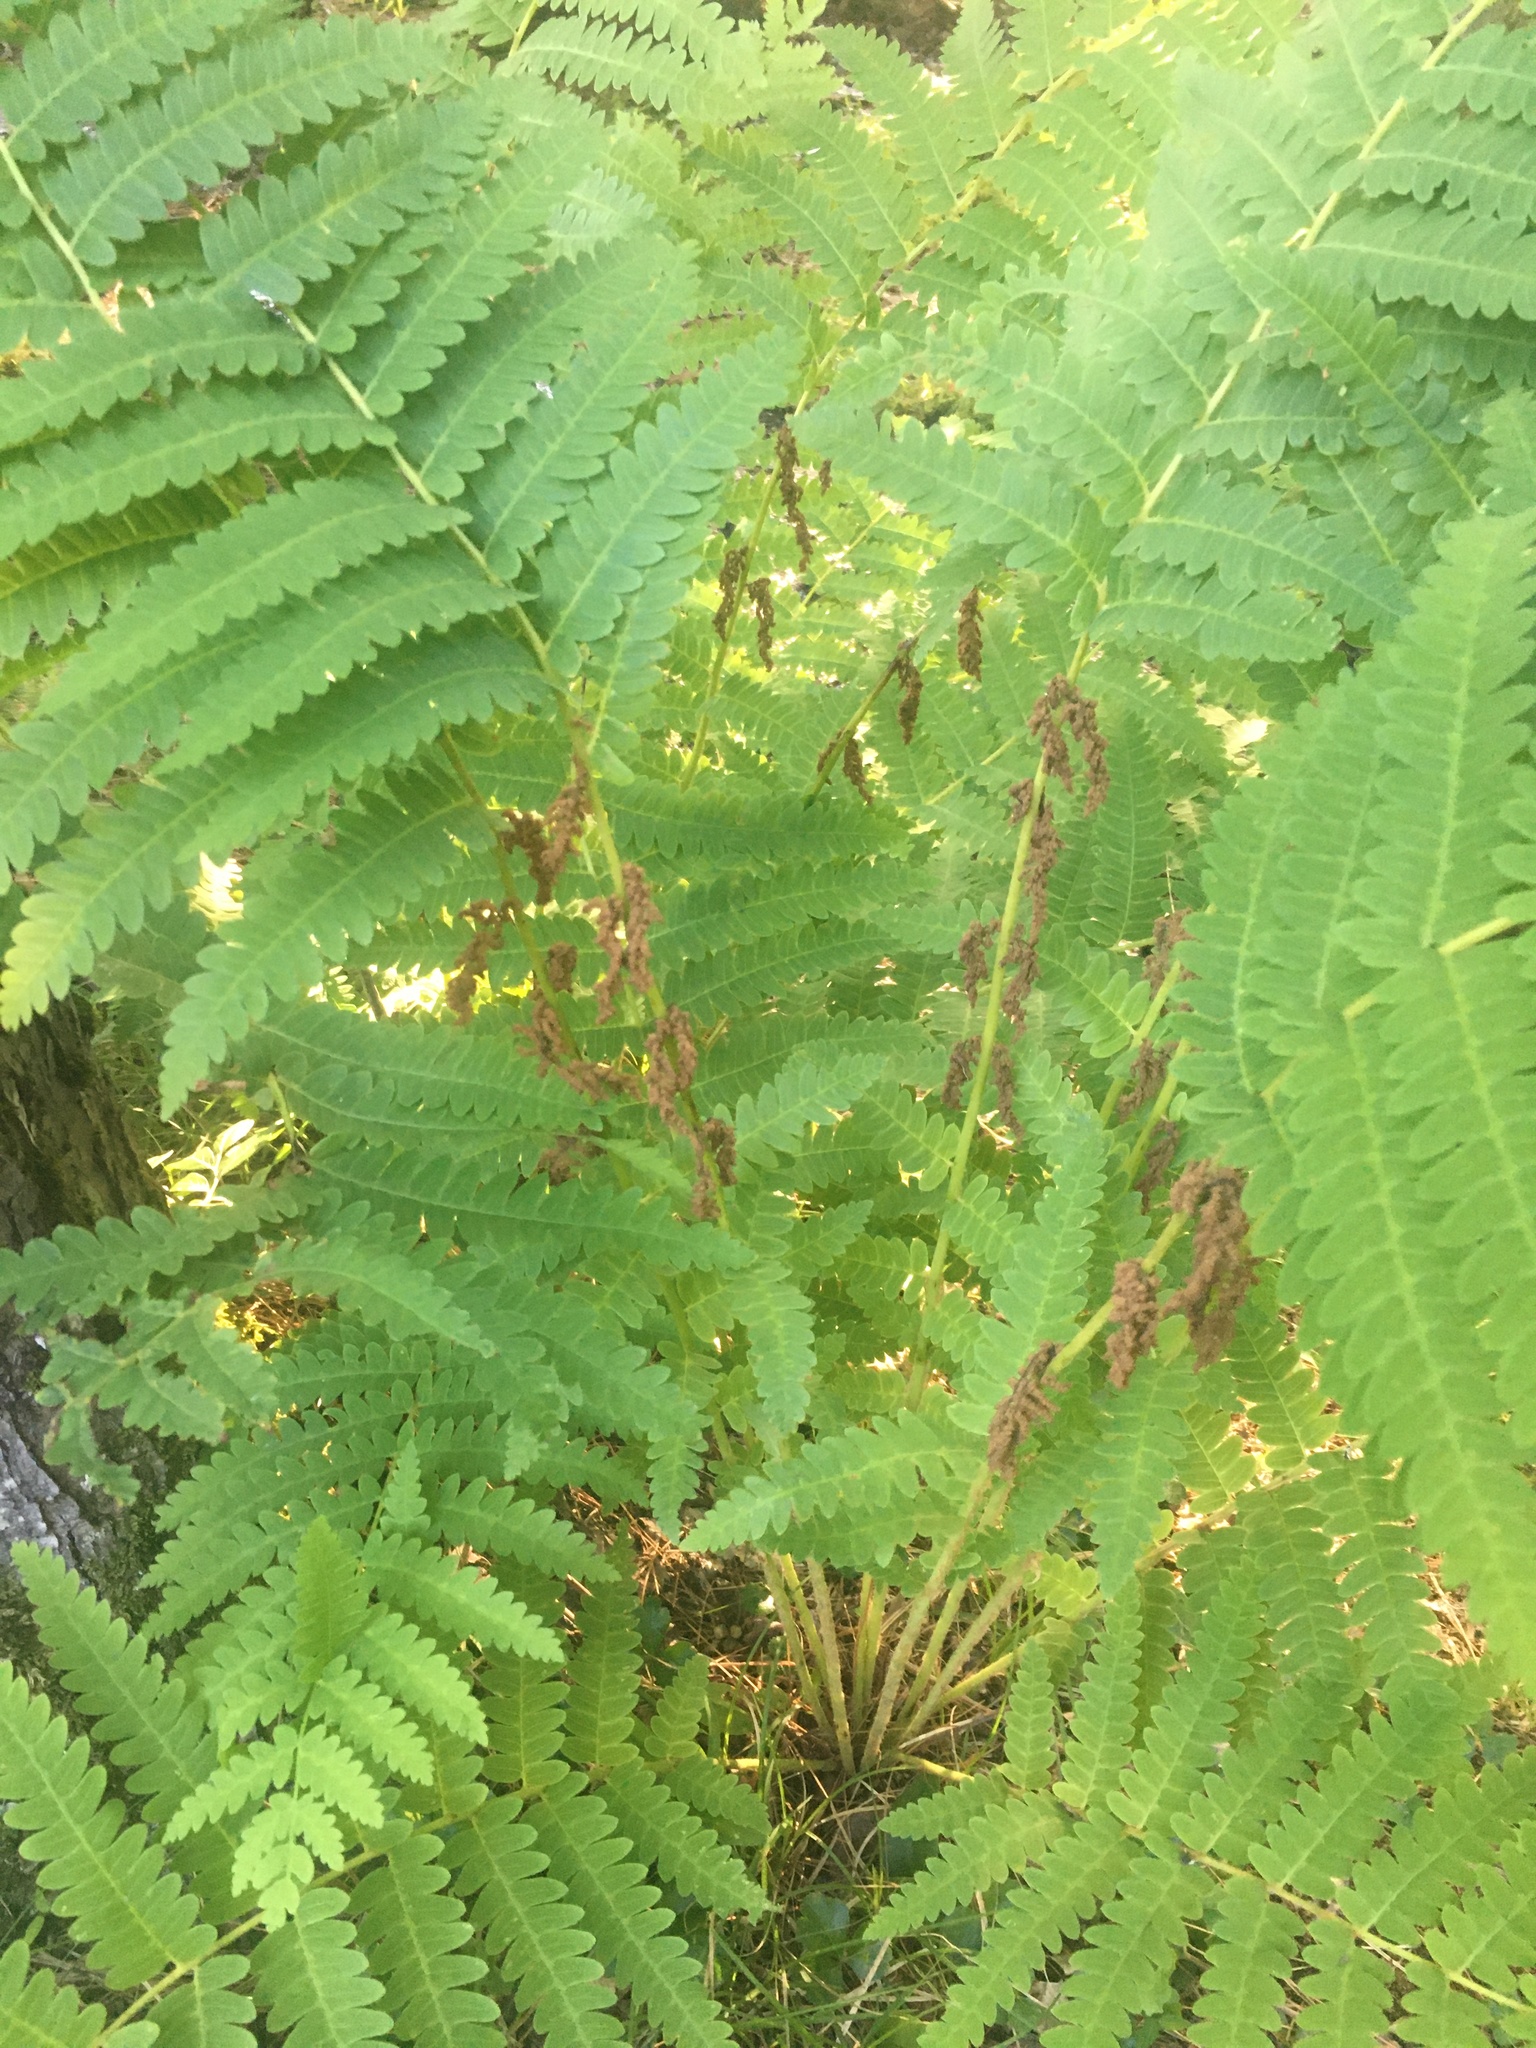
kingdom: Plantae
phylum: Tracheophyta
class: Polypodiopsida
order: Osmundales
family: Osmundaceae
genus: Claytosmunda
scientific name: Claytosmunda claytoniana
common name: Clayton's fern
